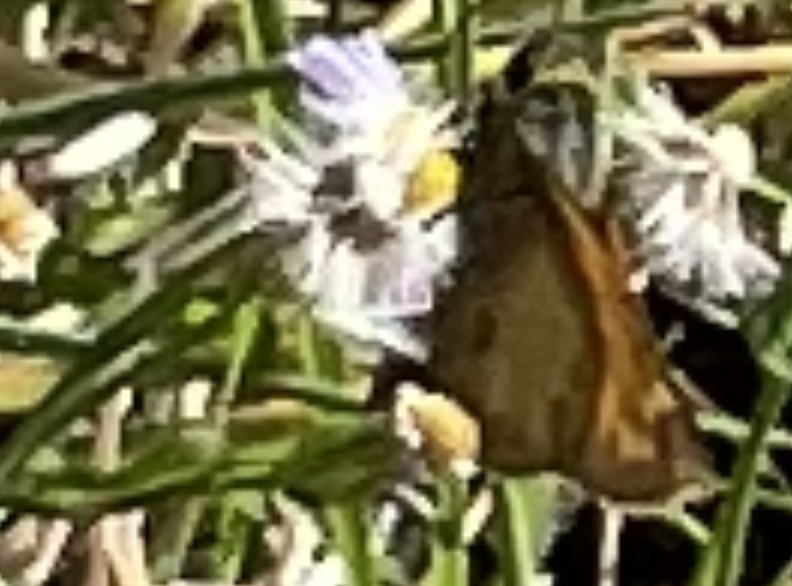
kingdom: Animalia
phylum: Arthropoda
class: Insecta
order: Lepidoptera
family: Hesperiidae
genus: Atalopedes
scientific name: Atalopedes
